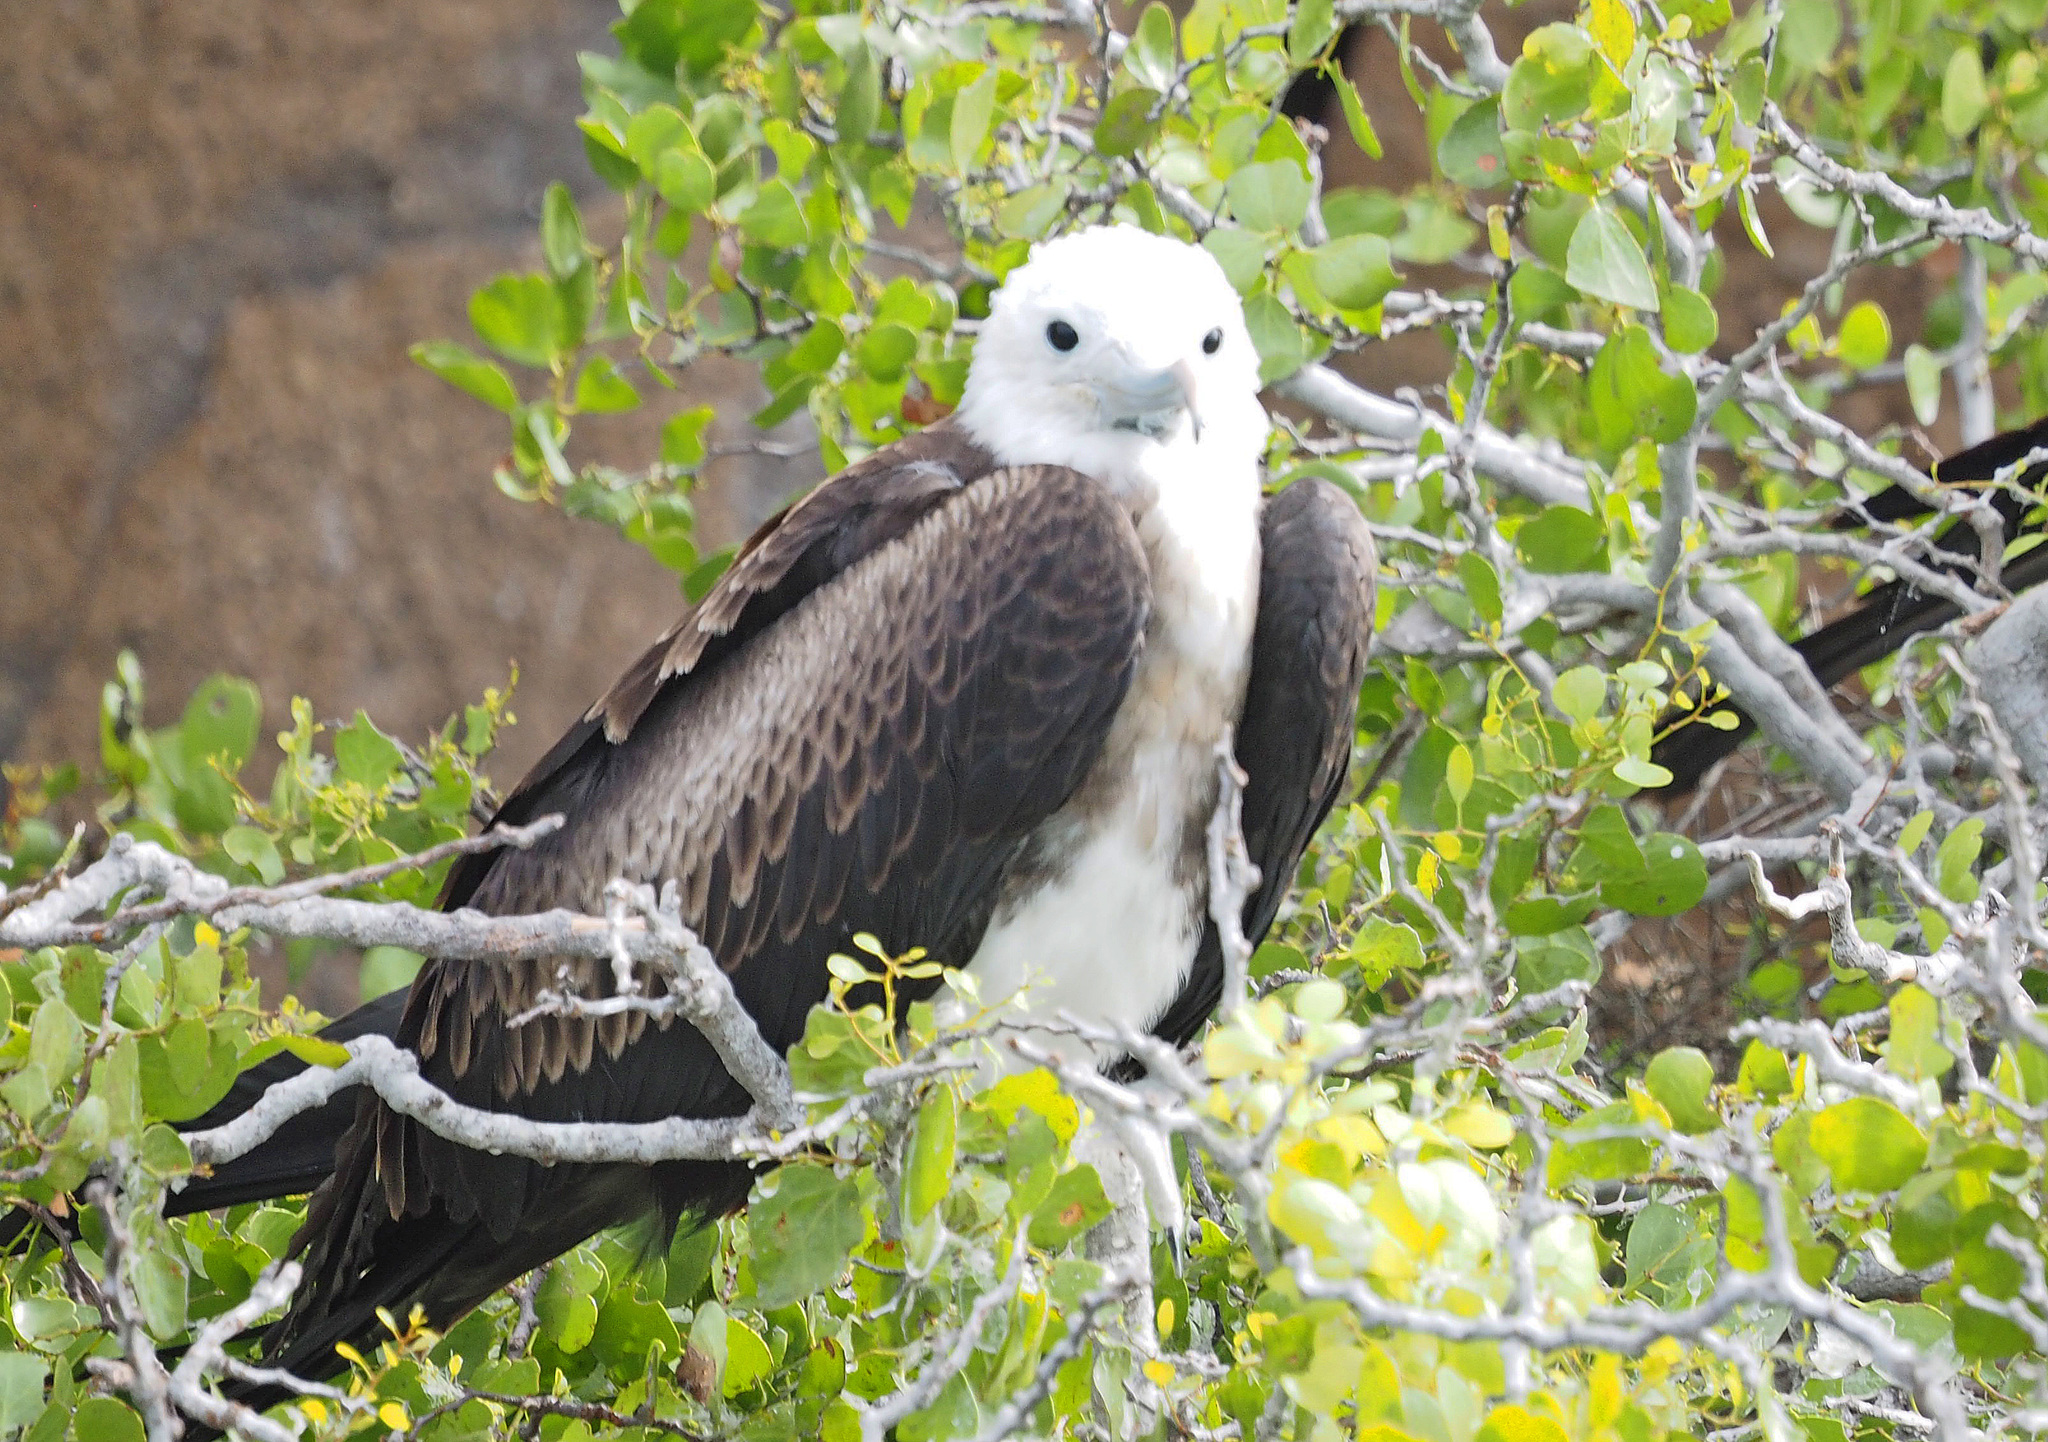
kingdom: Animalia
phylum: Chordata
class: Aves
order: Suliformes
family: Fregatidae
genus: Fregata
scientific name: Fregata magnificens
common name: Magnificent frigatebird
